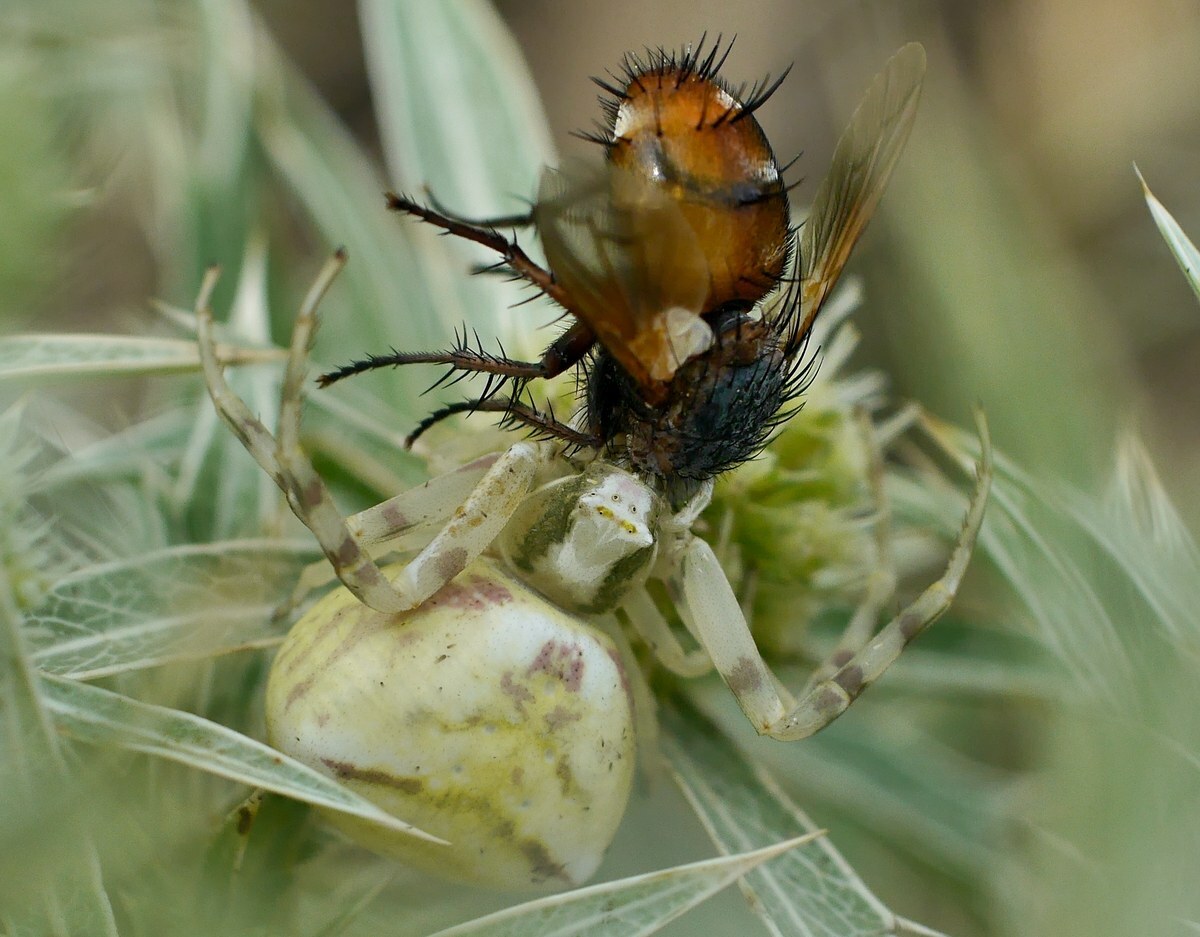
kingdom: Animalia
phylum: Arthropoda
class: Arachnida
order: Araneae
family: Thomisidae
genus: Thomisus
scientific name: Thomisus onustus
